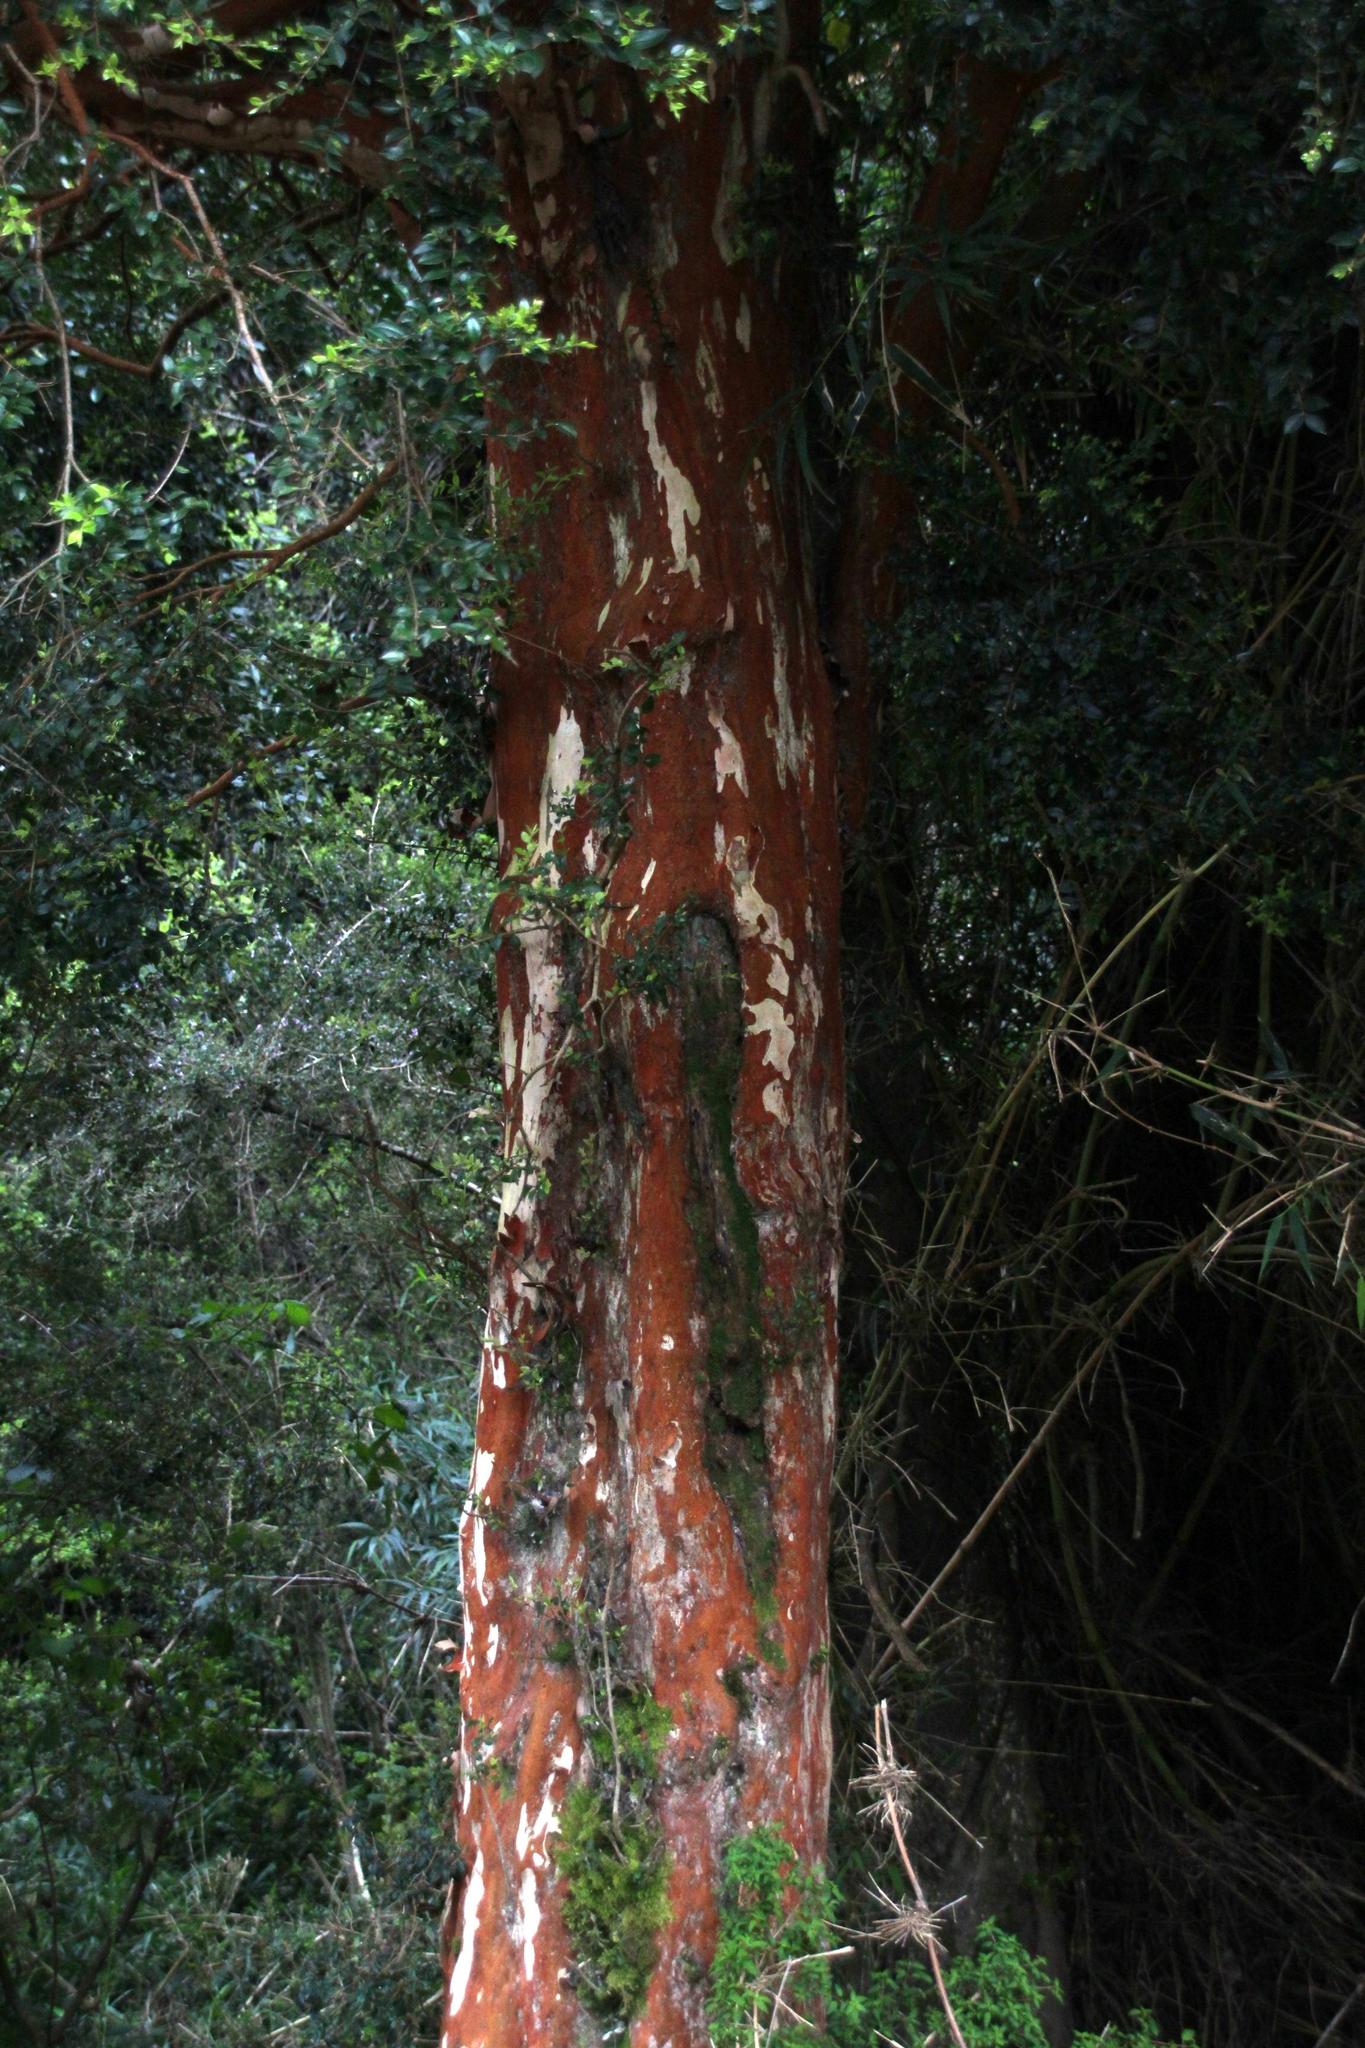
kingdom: Plantae
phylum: Tracheophyta
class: Magnoliopsida
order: Myrtales
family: Myrtaceae
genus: Luma
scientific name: Luma apiculata
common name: Chilean myrtle
